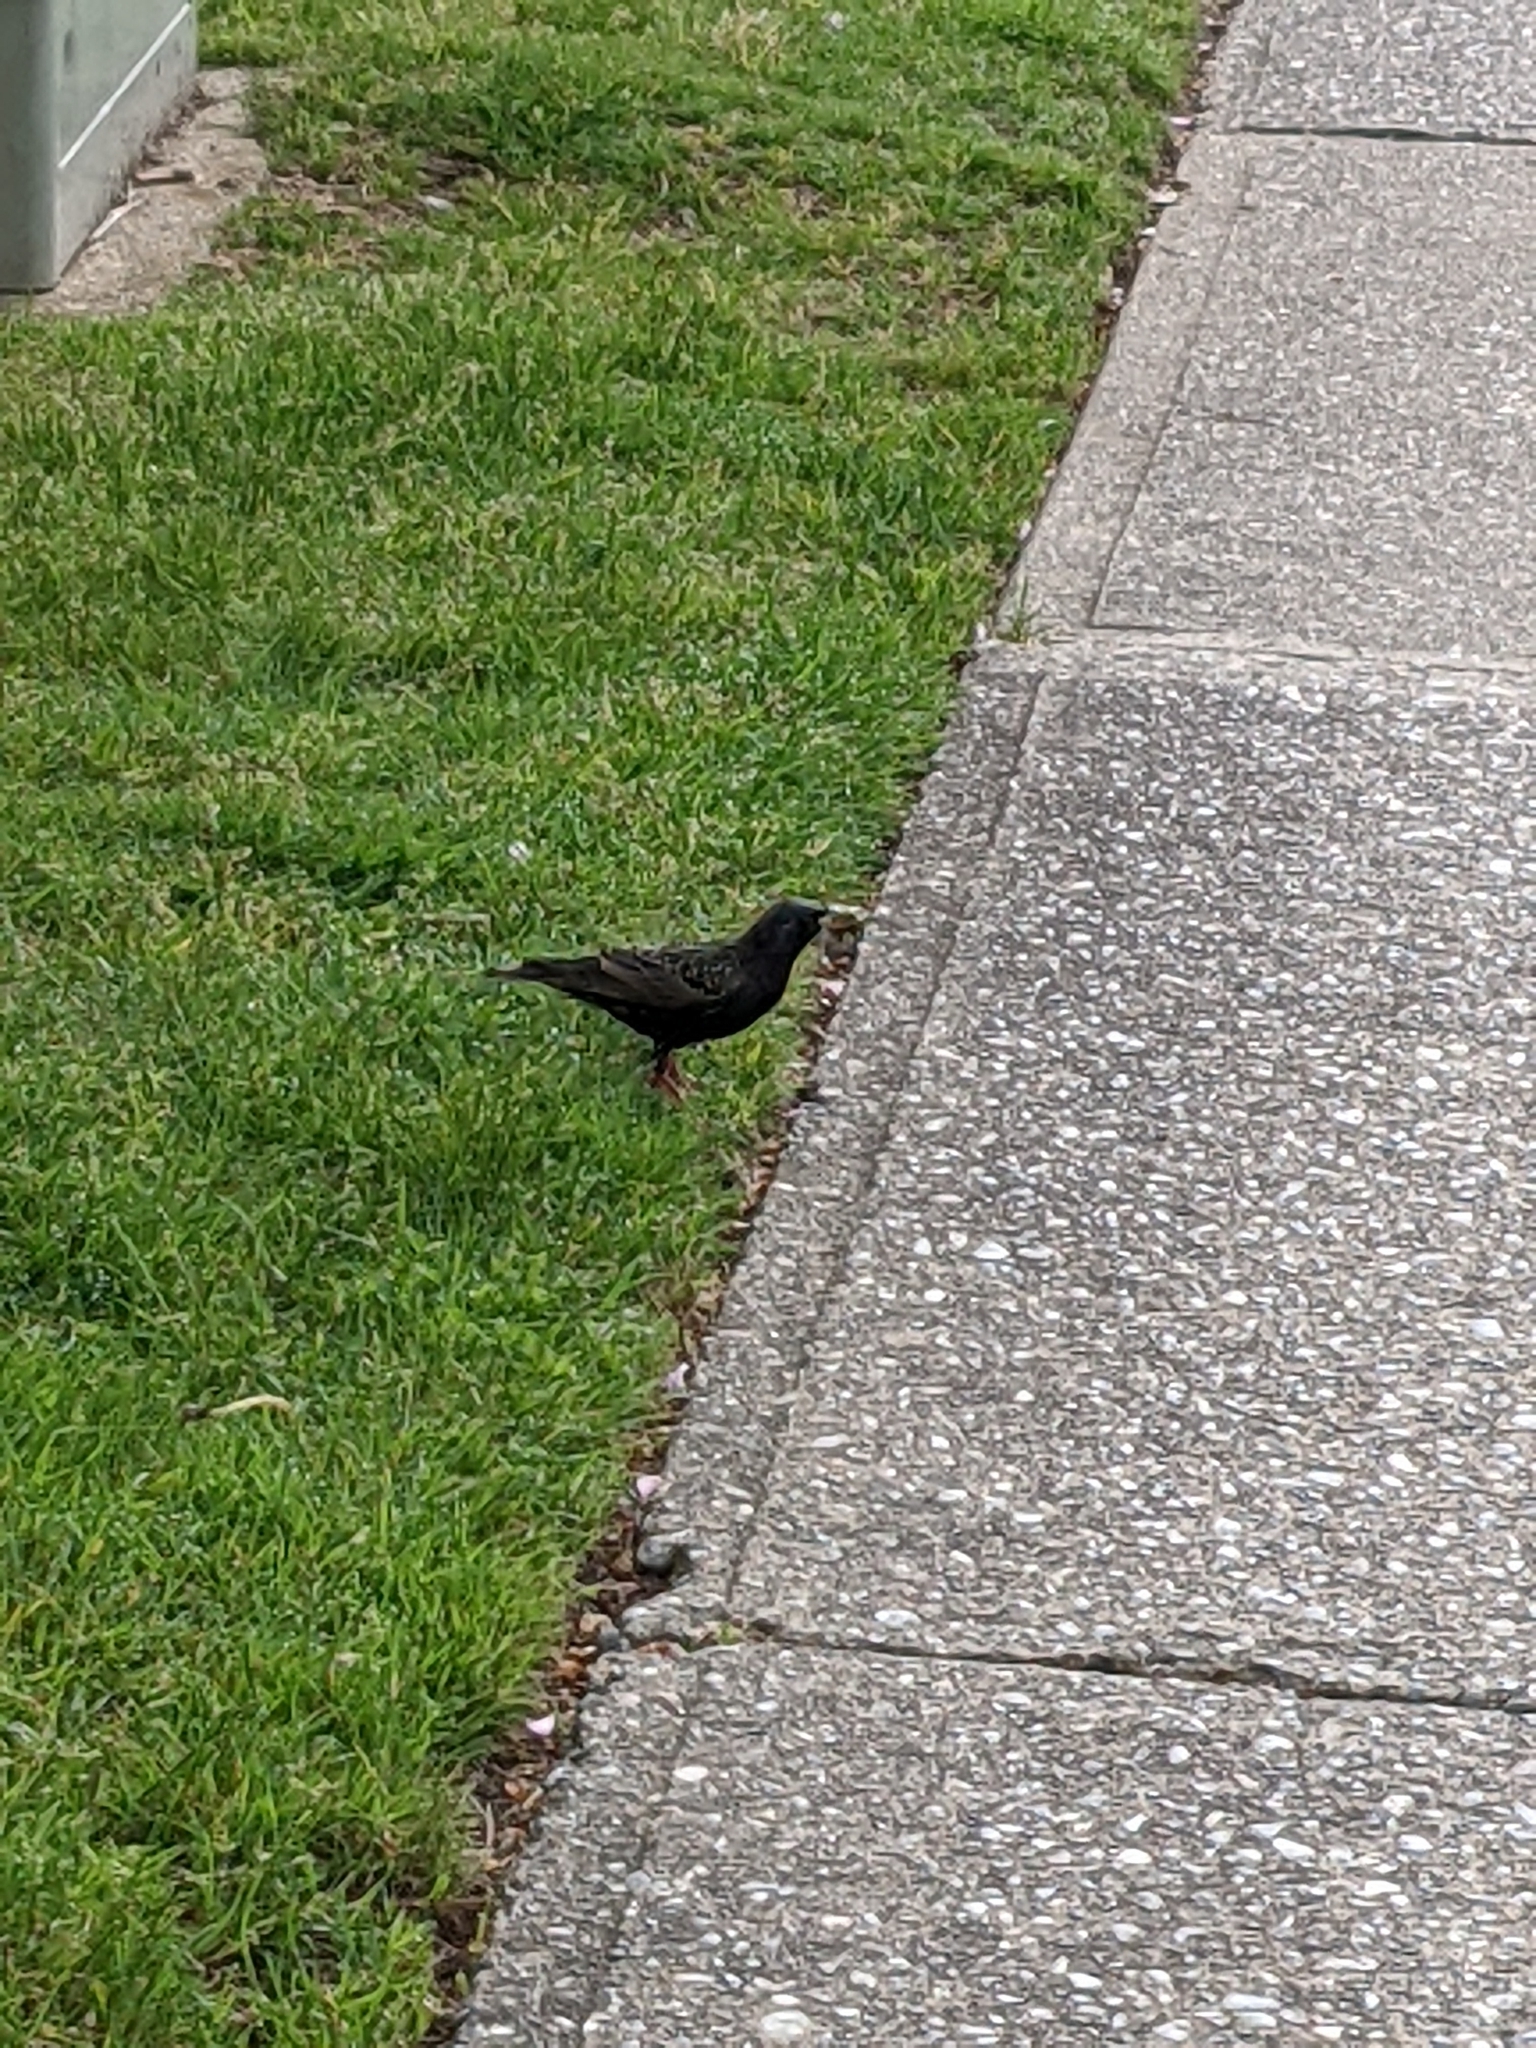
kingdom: Animalia
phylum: Chordata
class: Aves
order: Passeriformes
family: Sturnidae
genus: Sturnus
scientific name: Sturnus vulgaris
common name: Common starling
